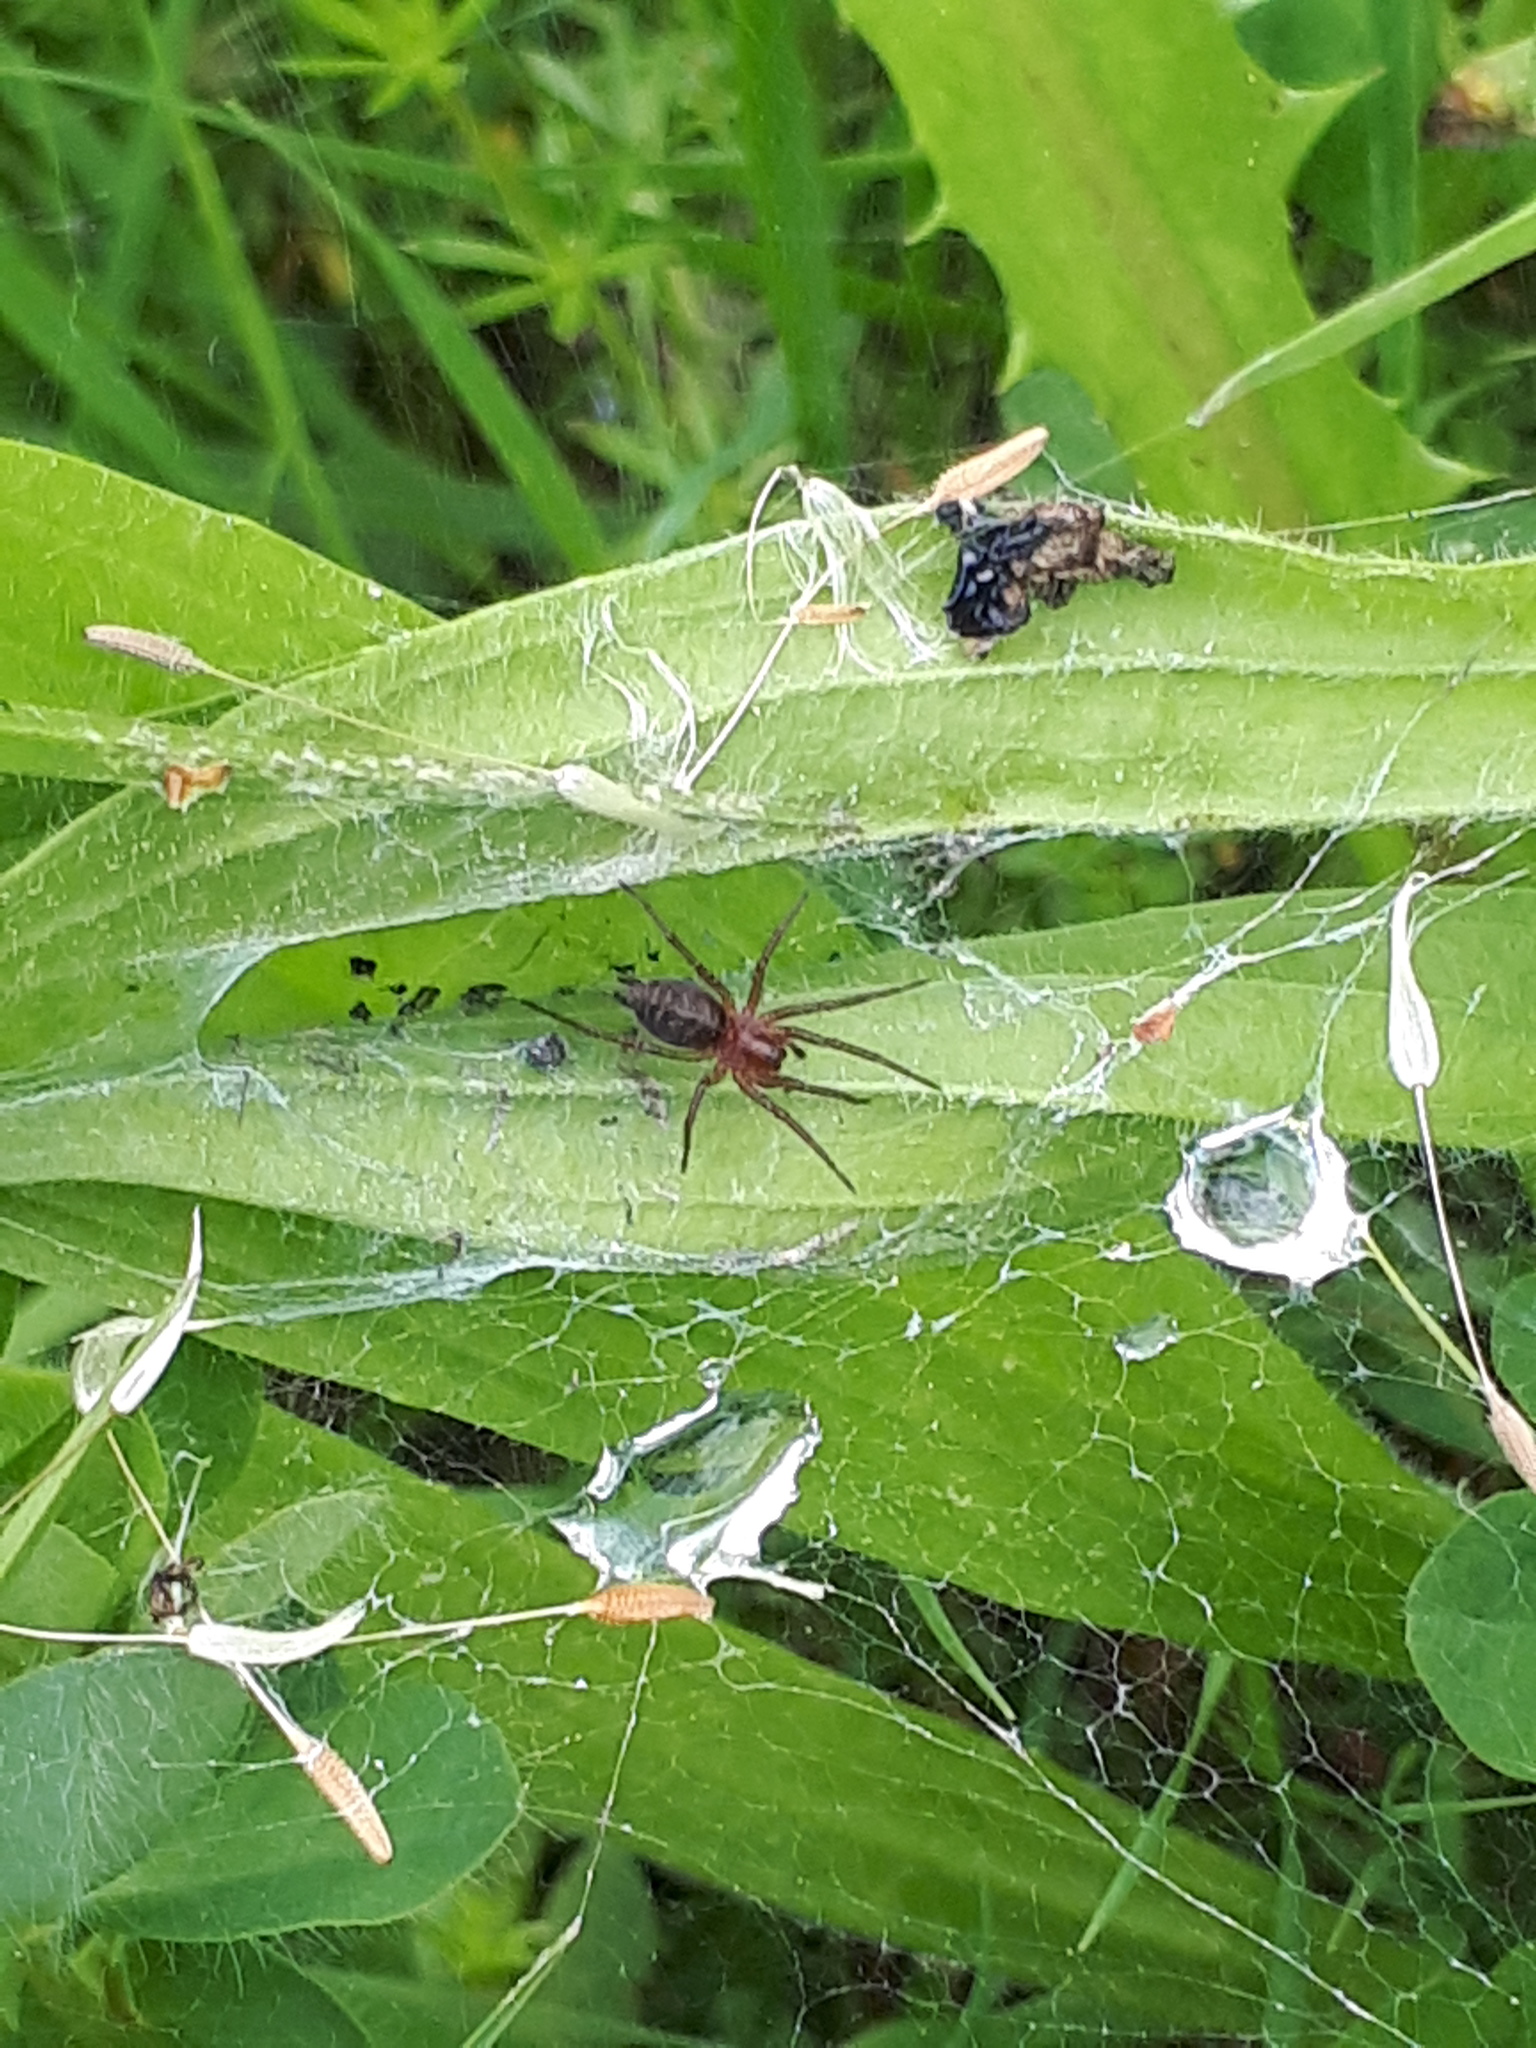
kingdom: Animalia
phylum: Arthropoda
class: Arachnida
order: Araneae
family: Agelenidae
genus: Agelena
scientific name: Agelena labyrinthica
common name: Labyrinth spider
